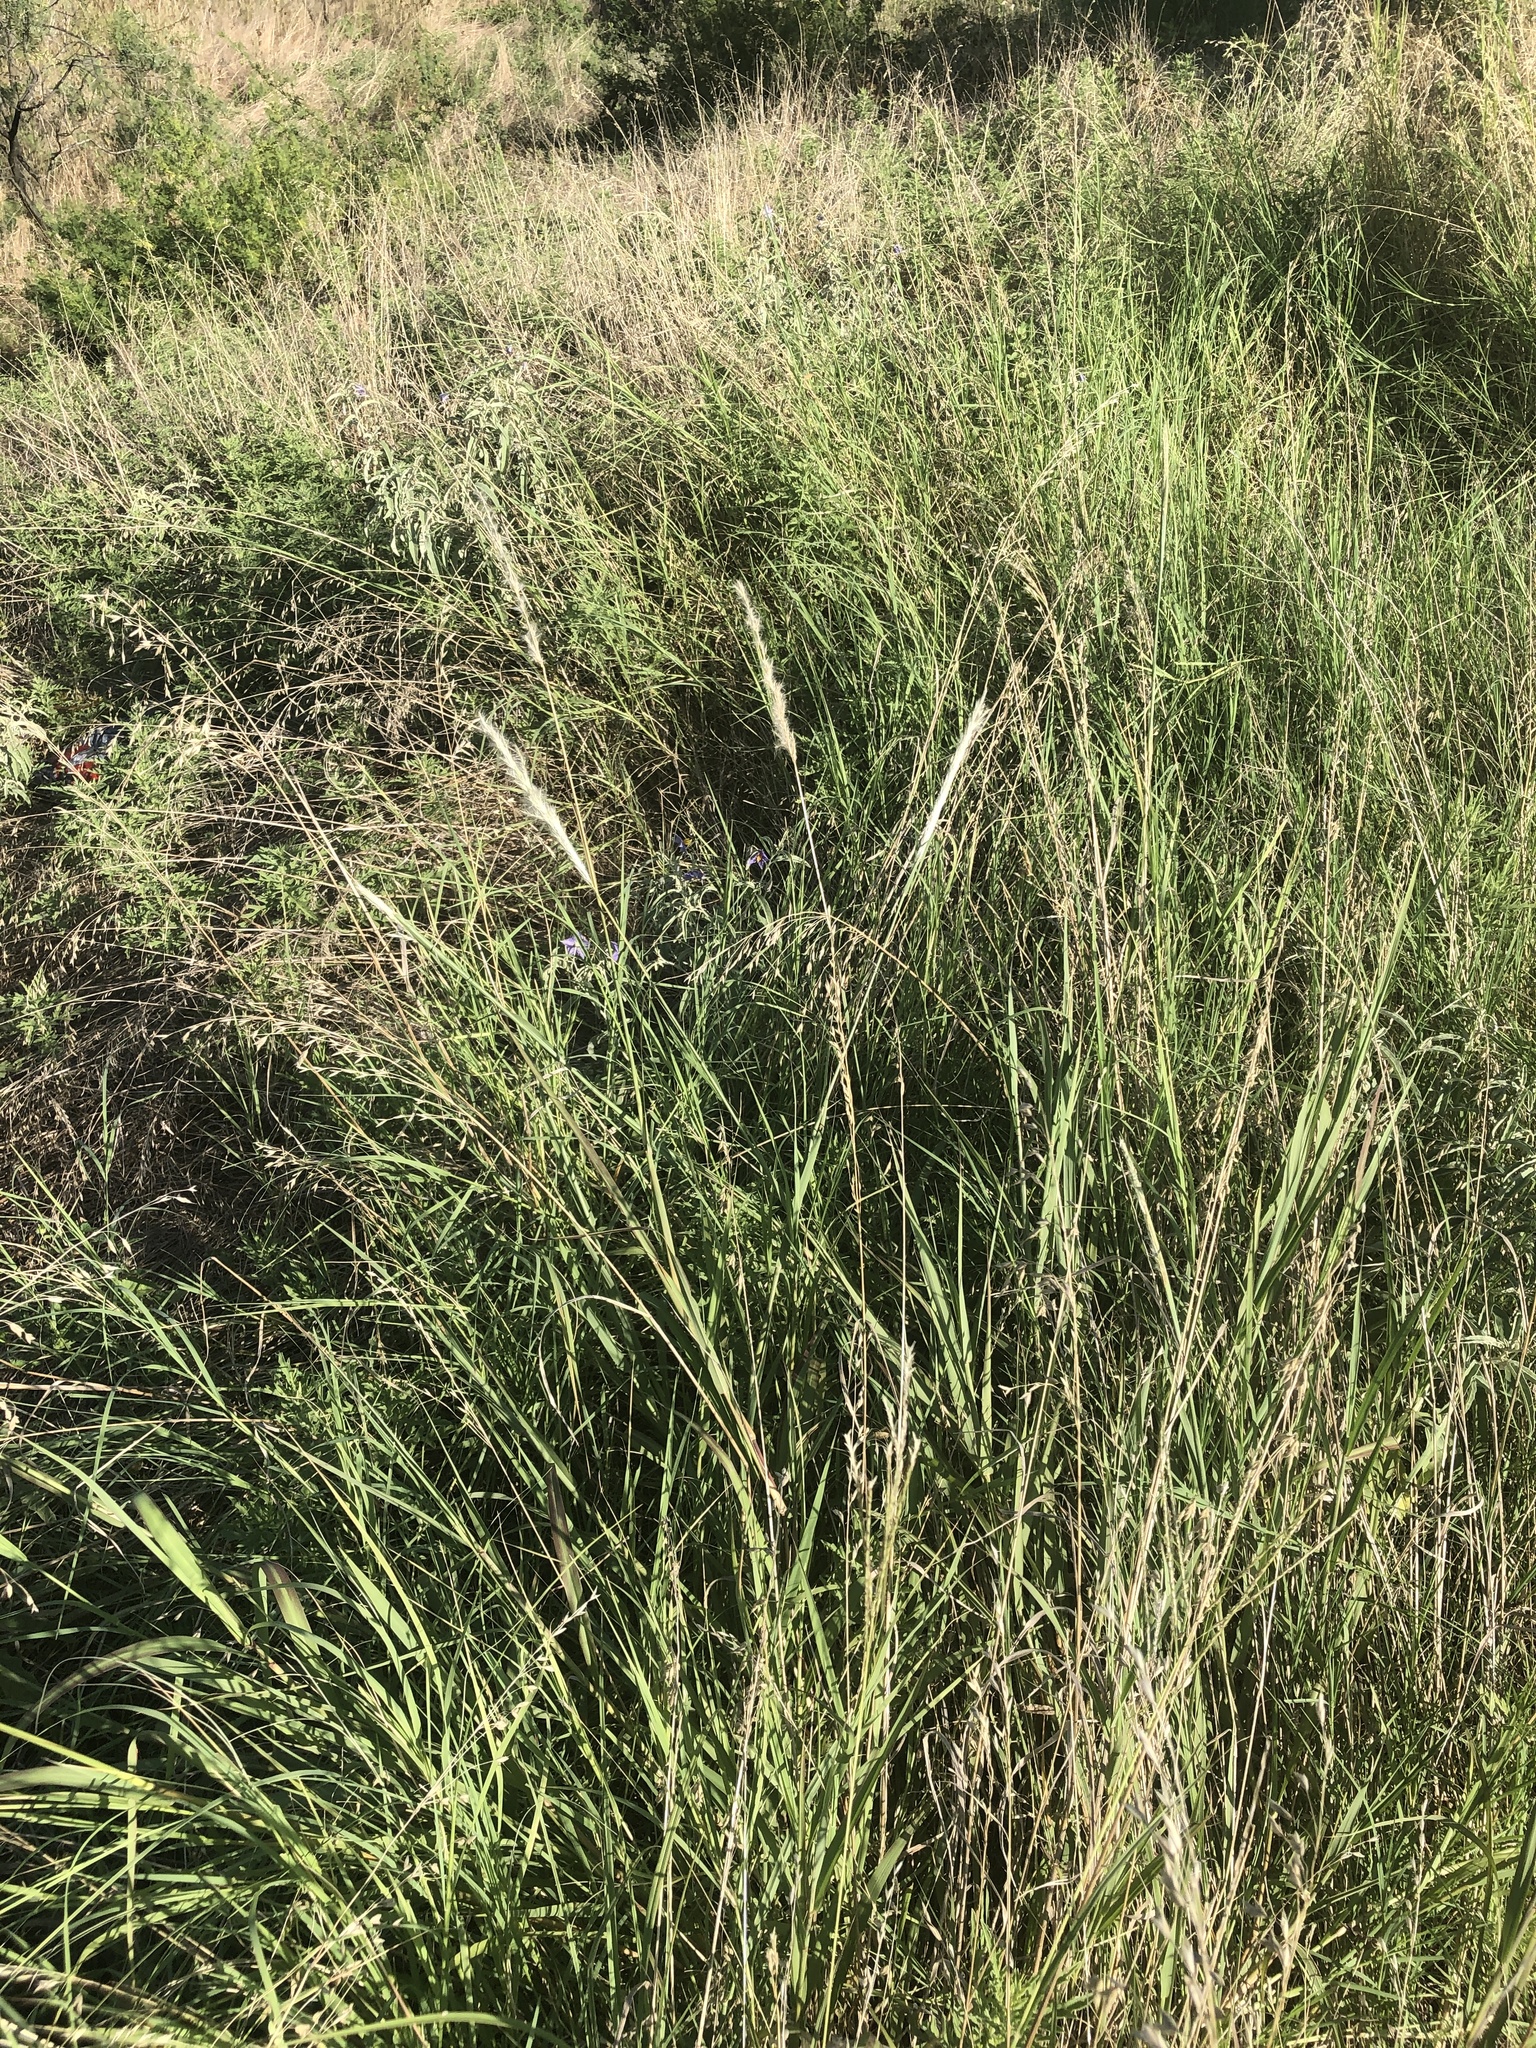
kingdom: Plantae
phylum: Tracheophyta
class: Liliopsida
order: Poales
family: Poaceae
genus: Bothriochloa
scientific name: Bothriochloa torreyana
